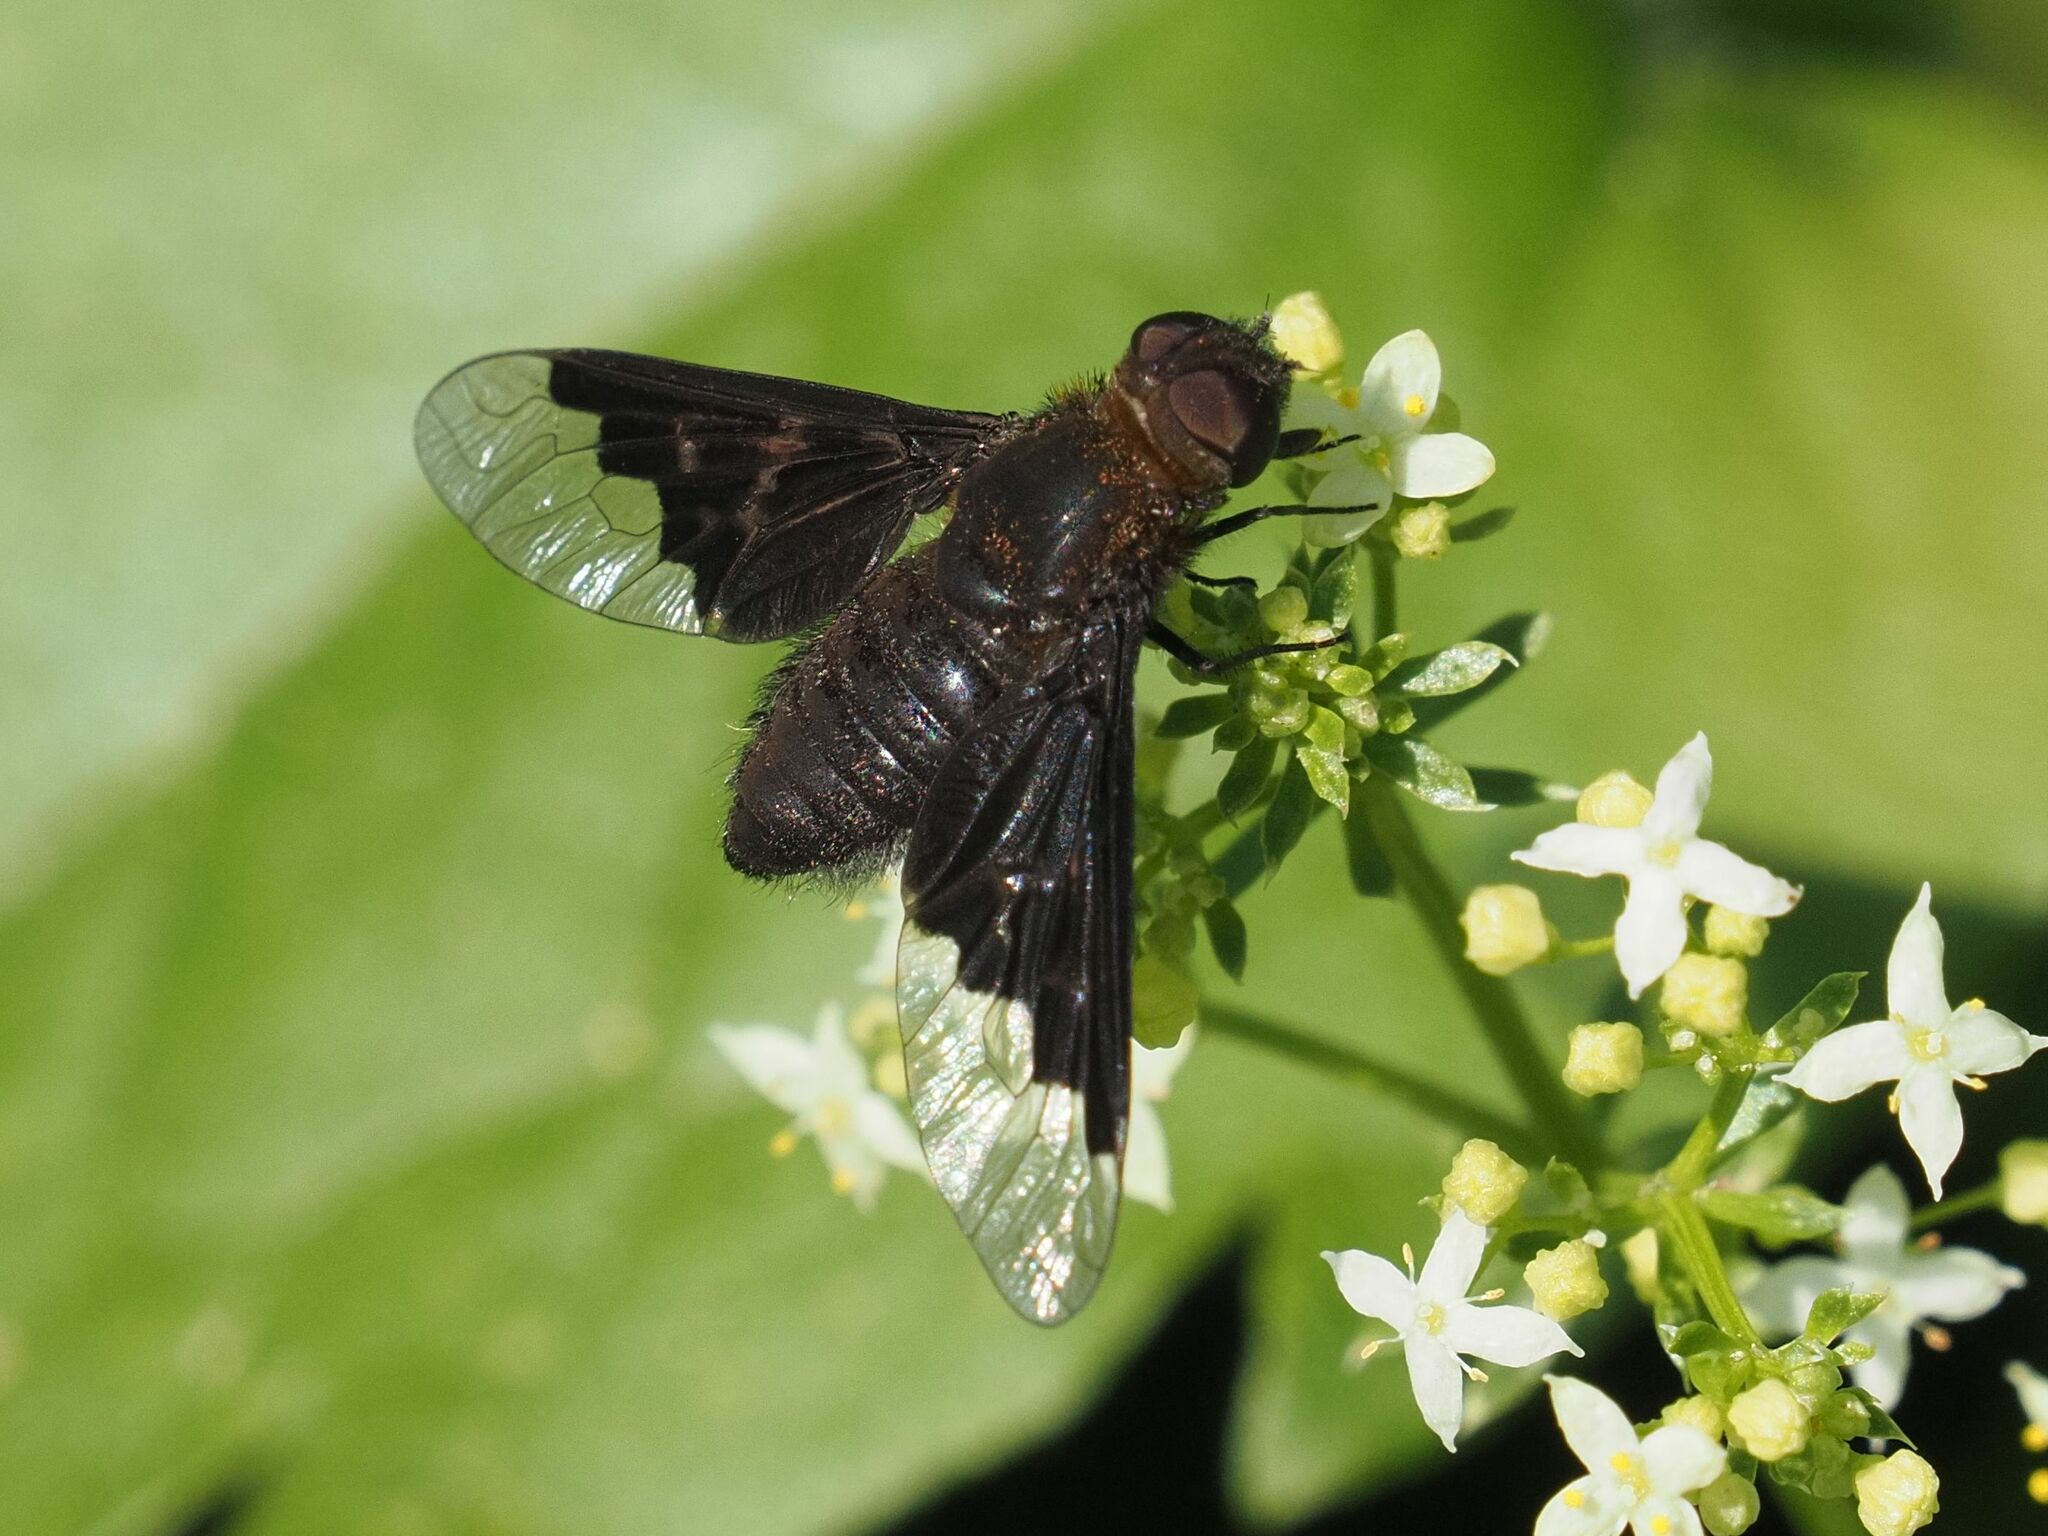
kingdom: Animalia
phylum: Arthropoda
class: Insecta
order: Diptera
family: Bombyliidae
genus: Hemipenthes
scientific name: Hemipenthes morio
